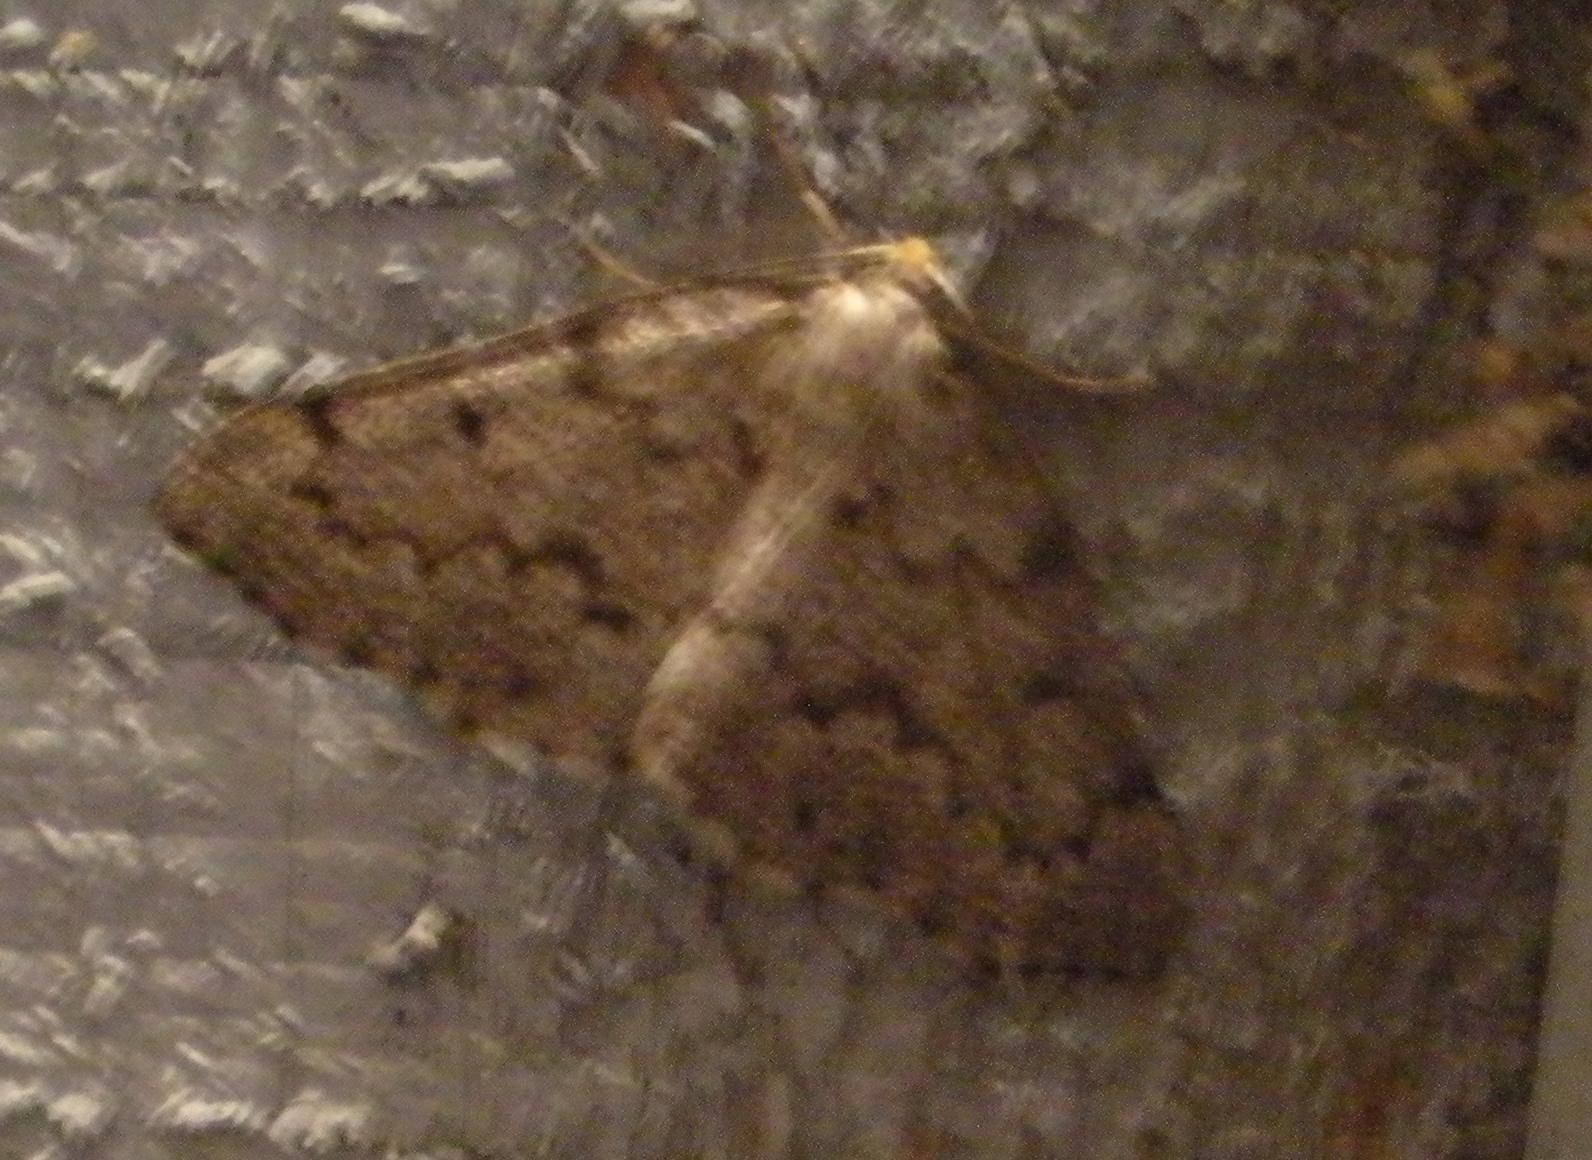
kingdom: Animalia
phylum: Arthropoda
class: Insecta
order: Lepidoptera
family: Geometridae
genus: Nepytia
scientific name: Nepytia canosaria
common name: False hemlock looper
